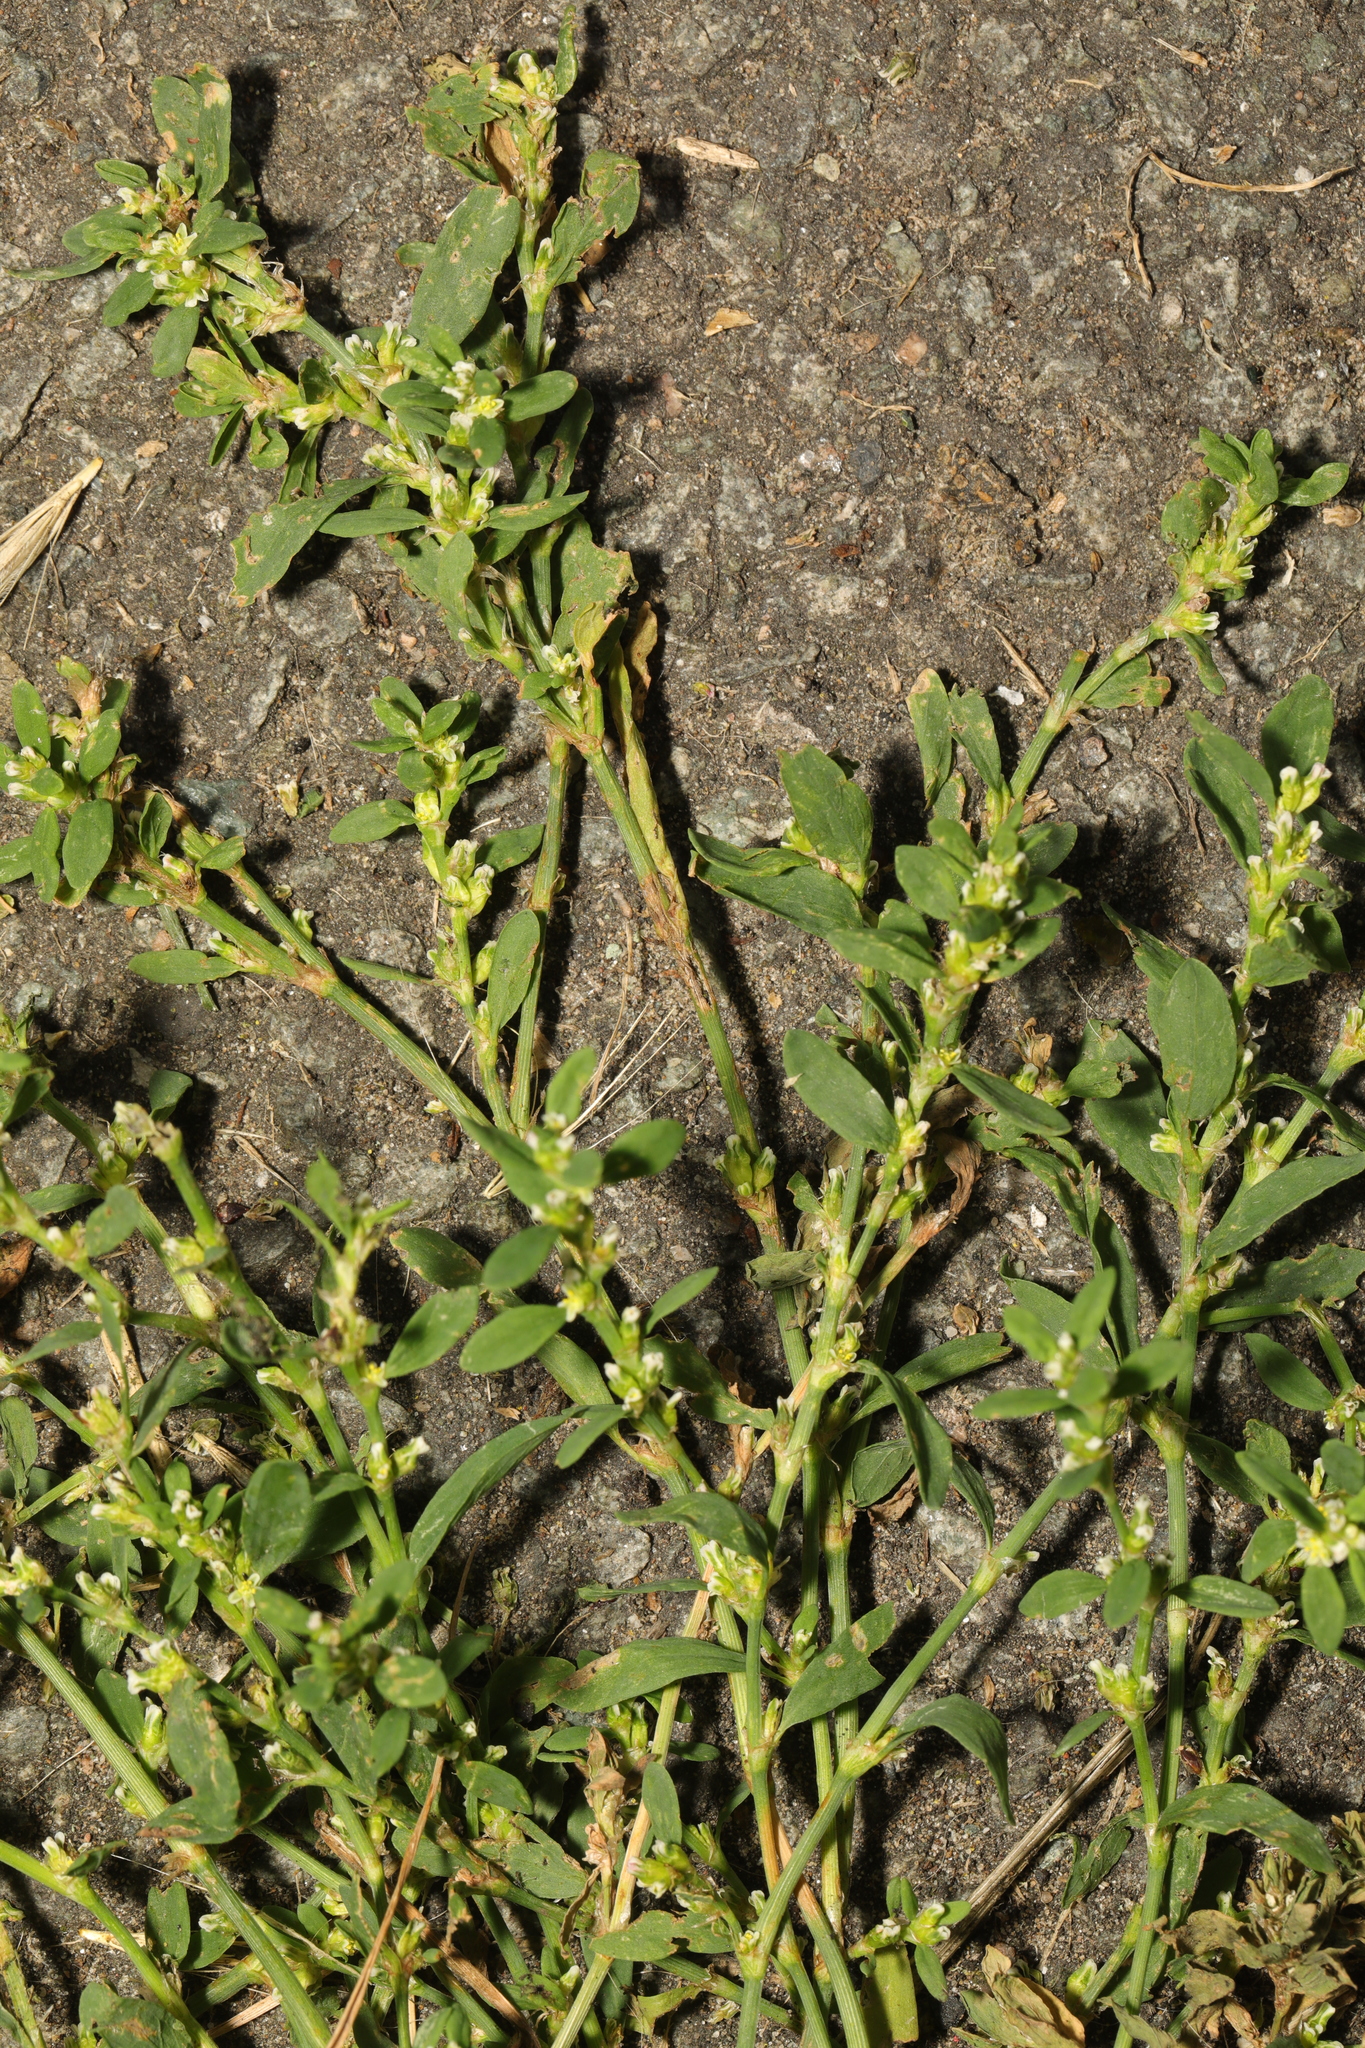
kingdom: Plantae
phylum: Tracheophyta
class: Magnoliopsida
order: Caryophyllales
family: Polygonaceae
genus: Polygonum
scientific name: Polygonum aviculare
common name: Prostrate knotweed
